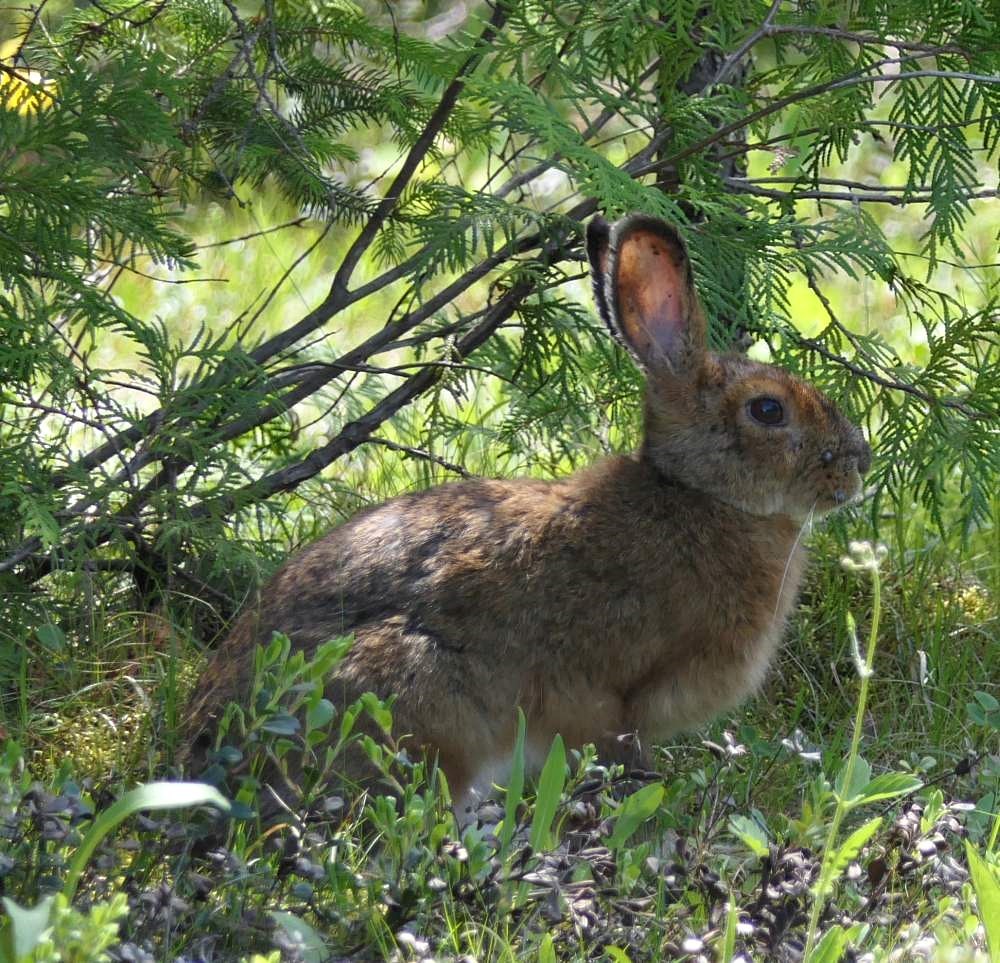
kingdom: Animalia
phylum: Chordata
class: Mammalia
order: Lagomorpha
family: Leporidae
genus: Lepus
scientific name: Lepus americanus
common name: Snowshoe hare
